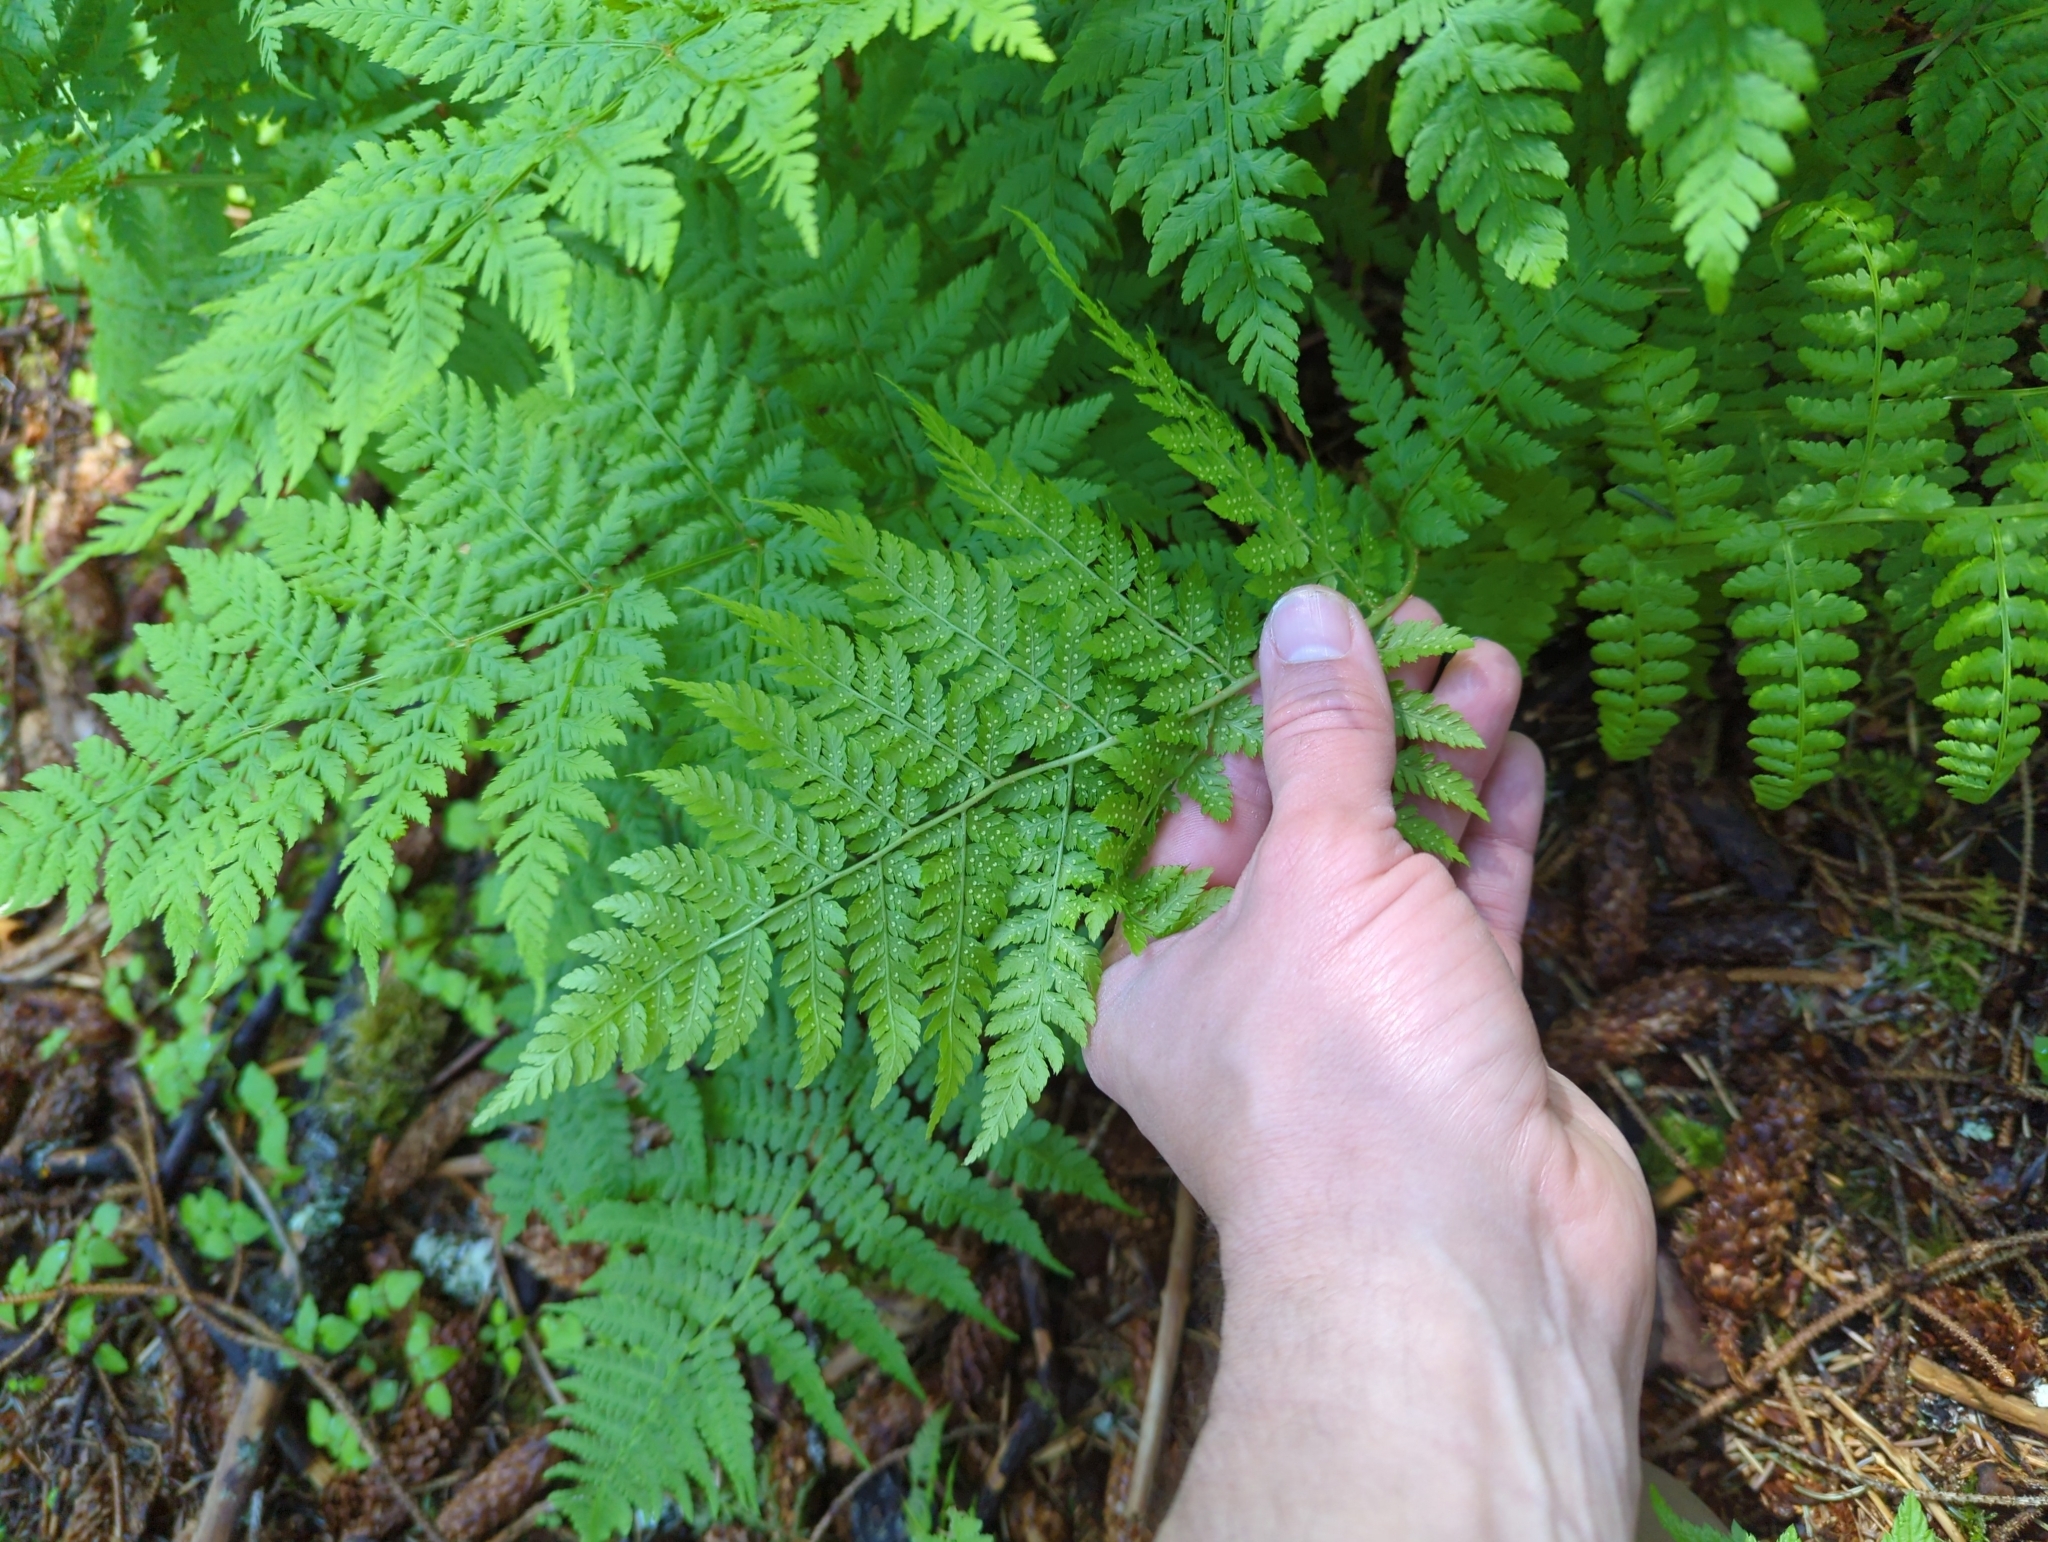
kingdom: Plantae
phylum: Tracheophyta
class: Polypodiopsida
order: Polypodiales
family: Athyriaceae
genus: Athyrium
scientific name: Athyrium filix-femina
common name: Lady fern
